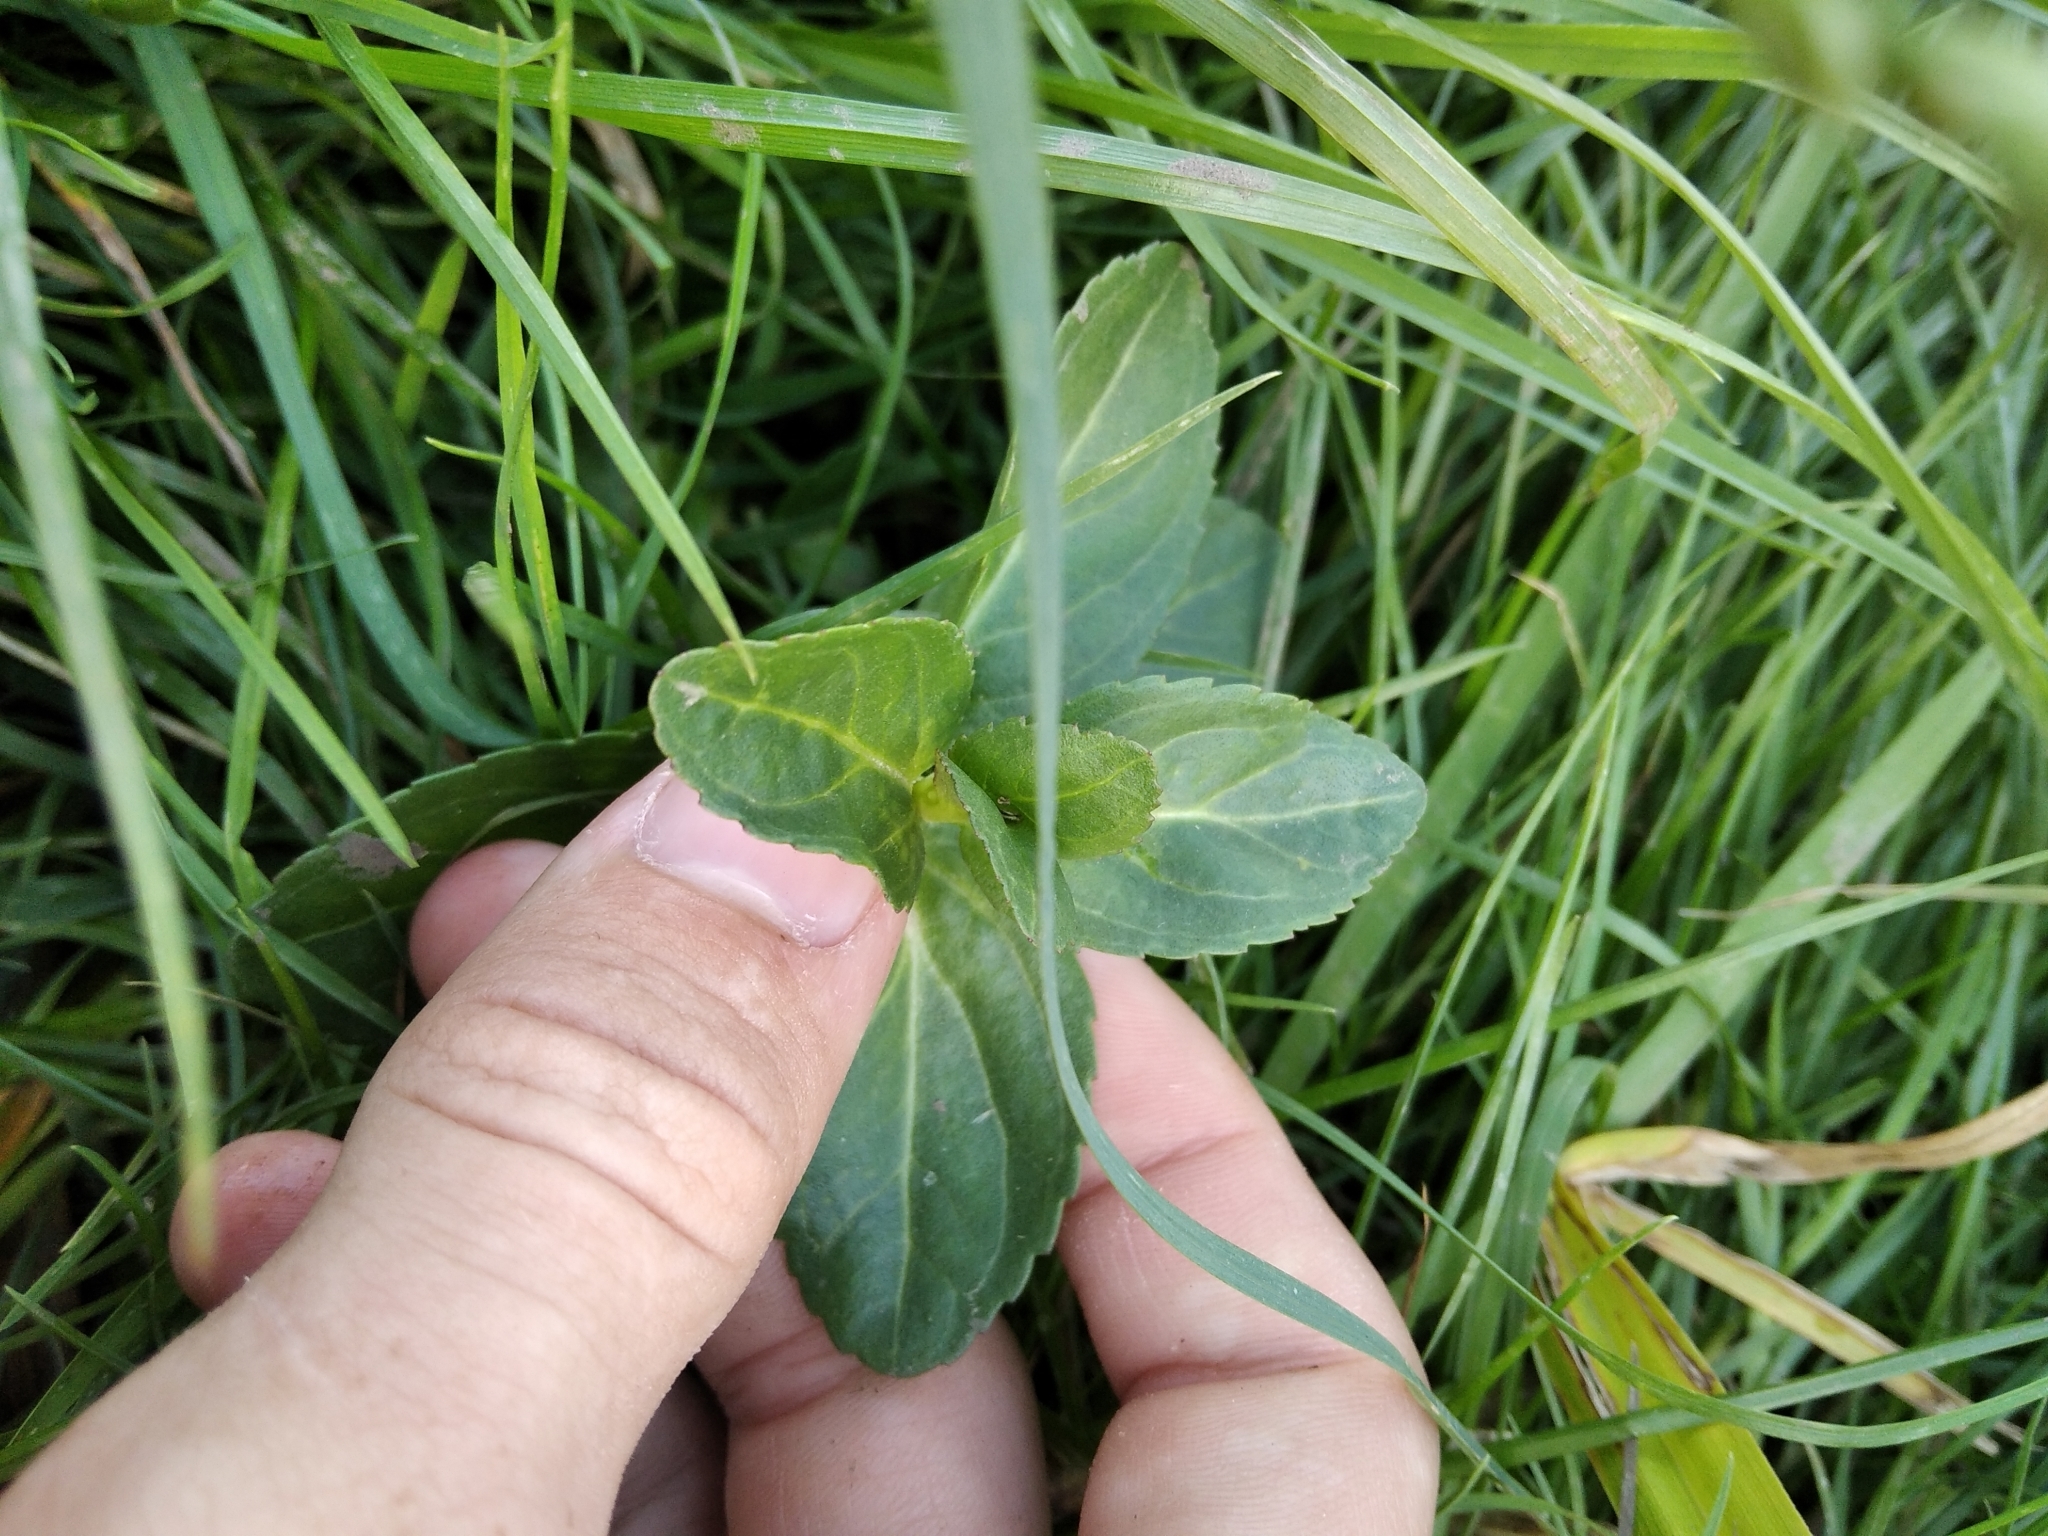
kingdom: Plantae
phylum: Tracheophyta
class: Magnoliopsida
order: Lamiales
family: Plantaginaceae
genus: Veronica
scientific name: Veronica beccabunga
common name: Brooklime
